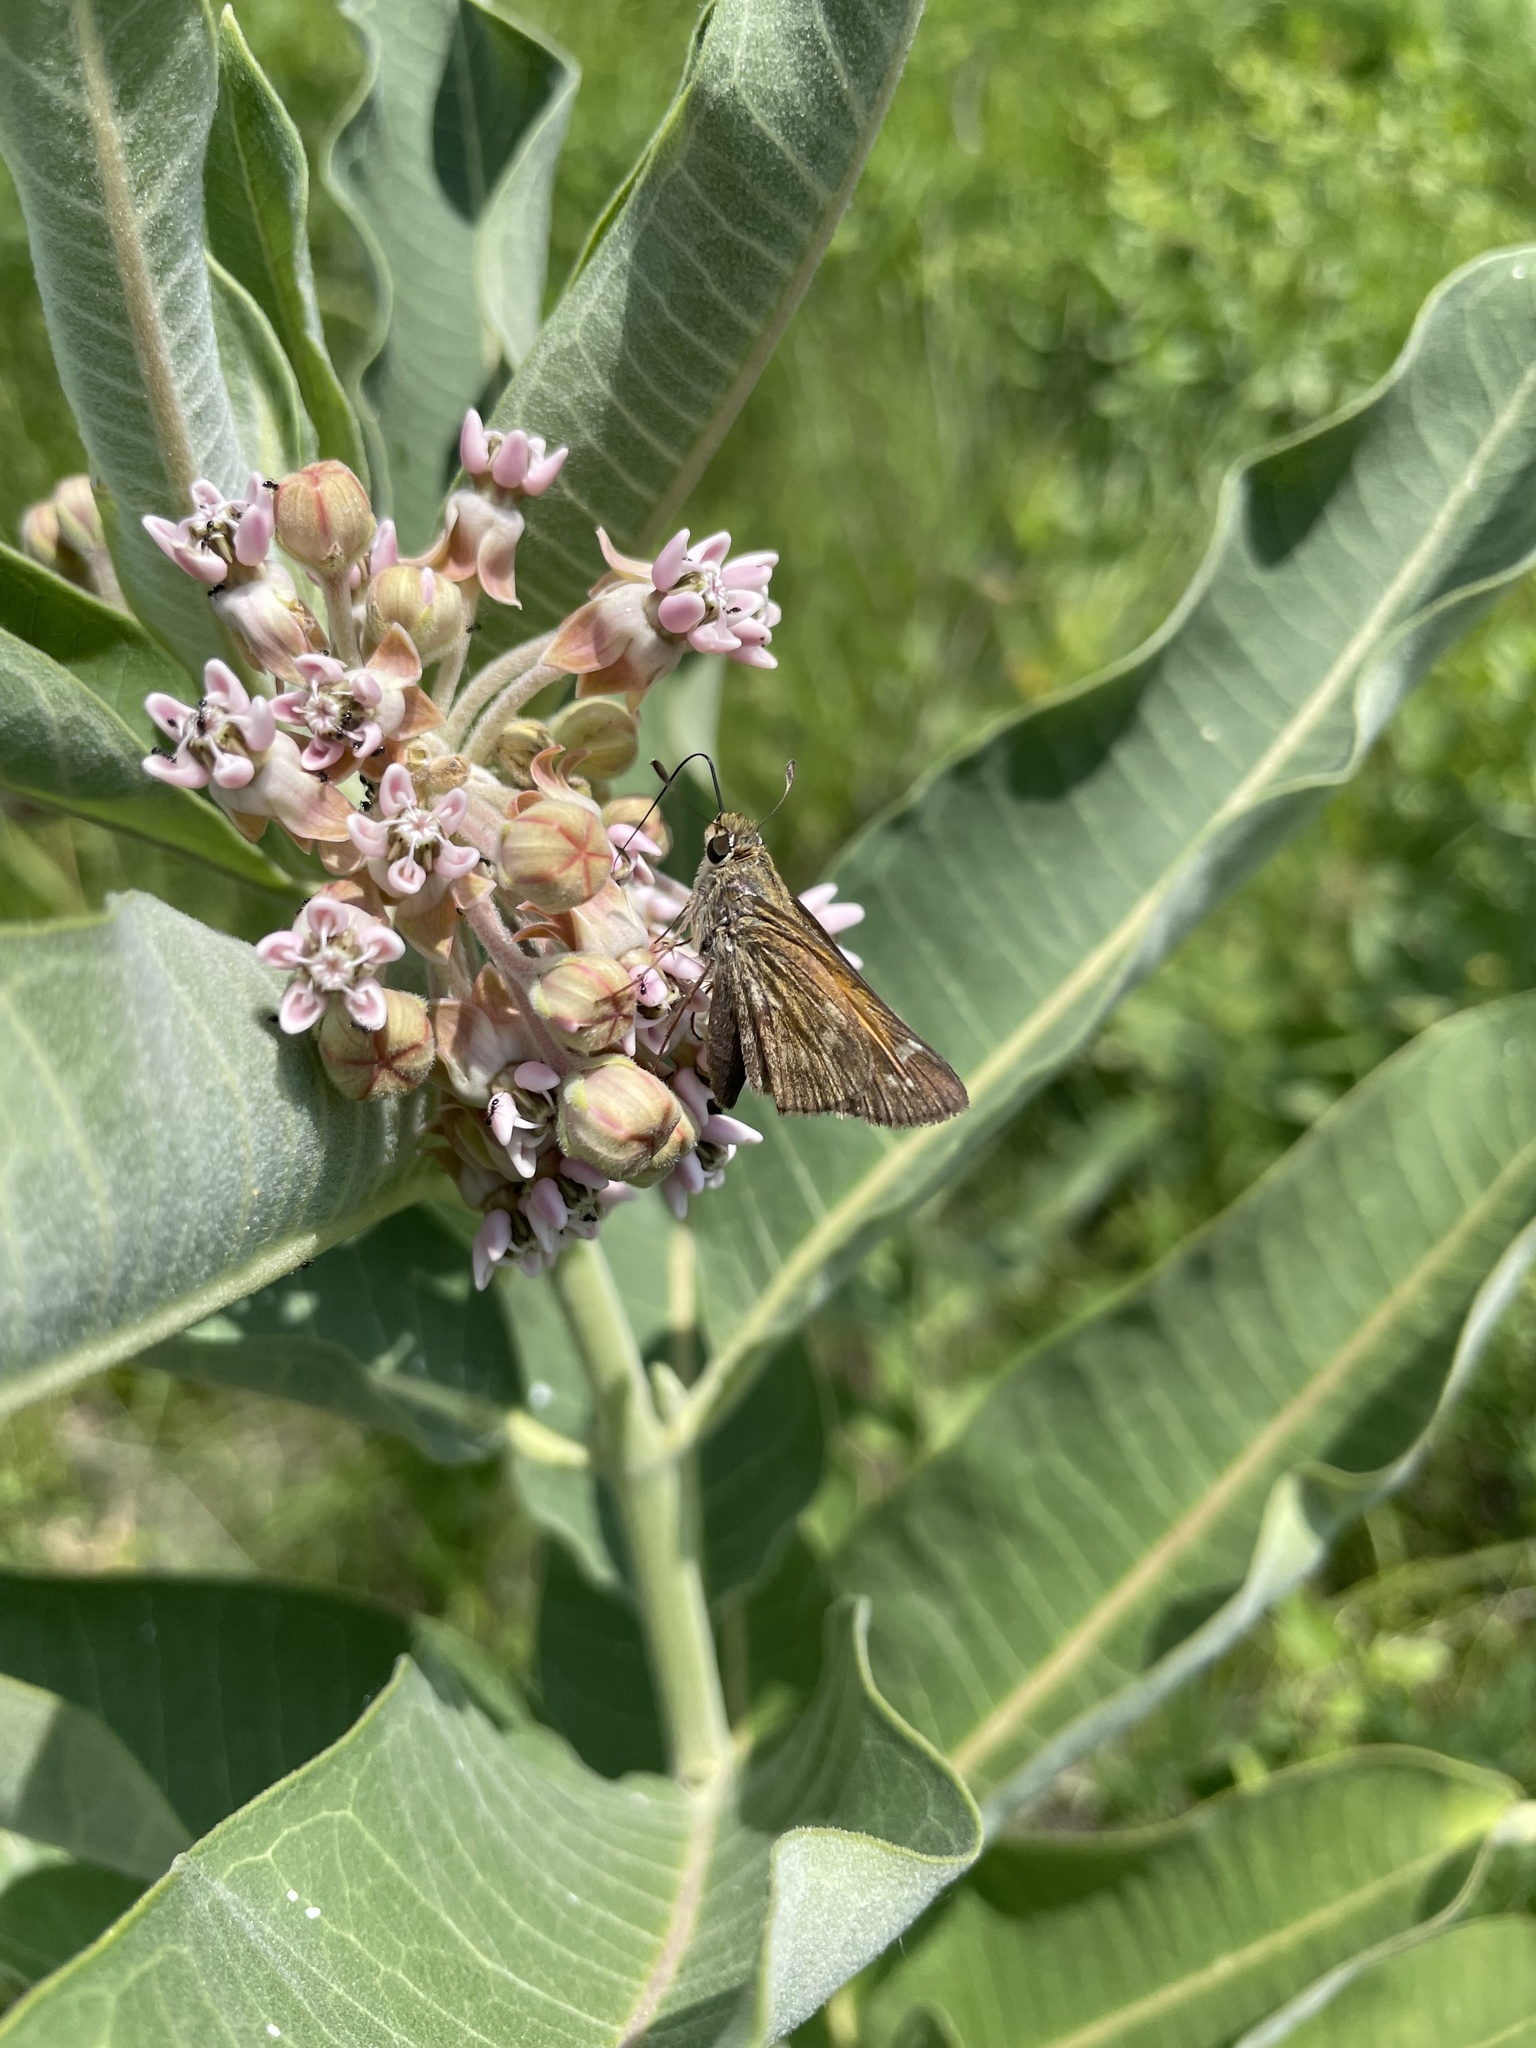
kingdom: Animalia
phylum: Arthropoda
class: Insecta
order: Lepidoptera
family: Hesperiidae
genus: Atalopedes
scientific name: Atalopedes
